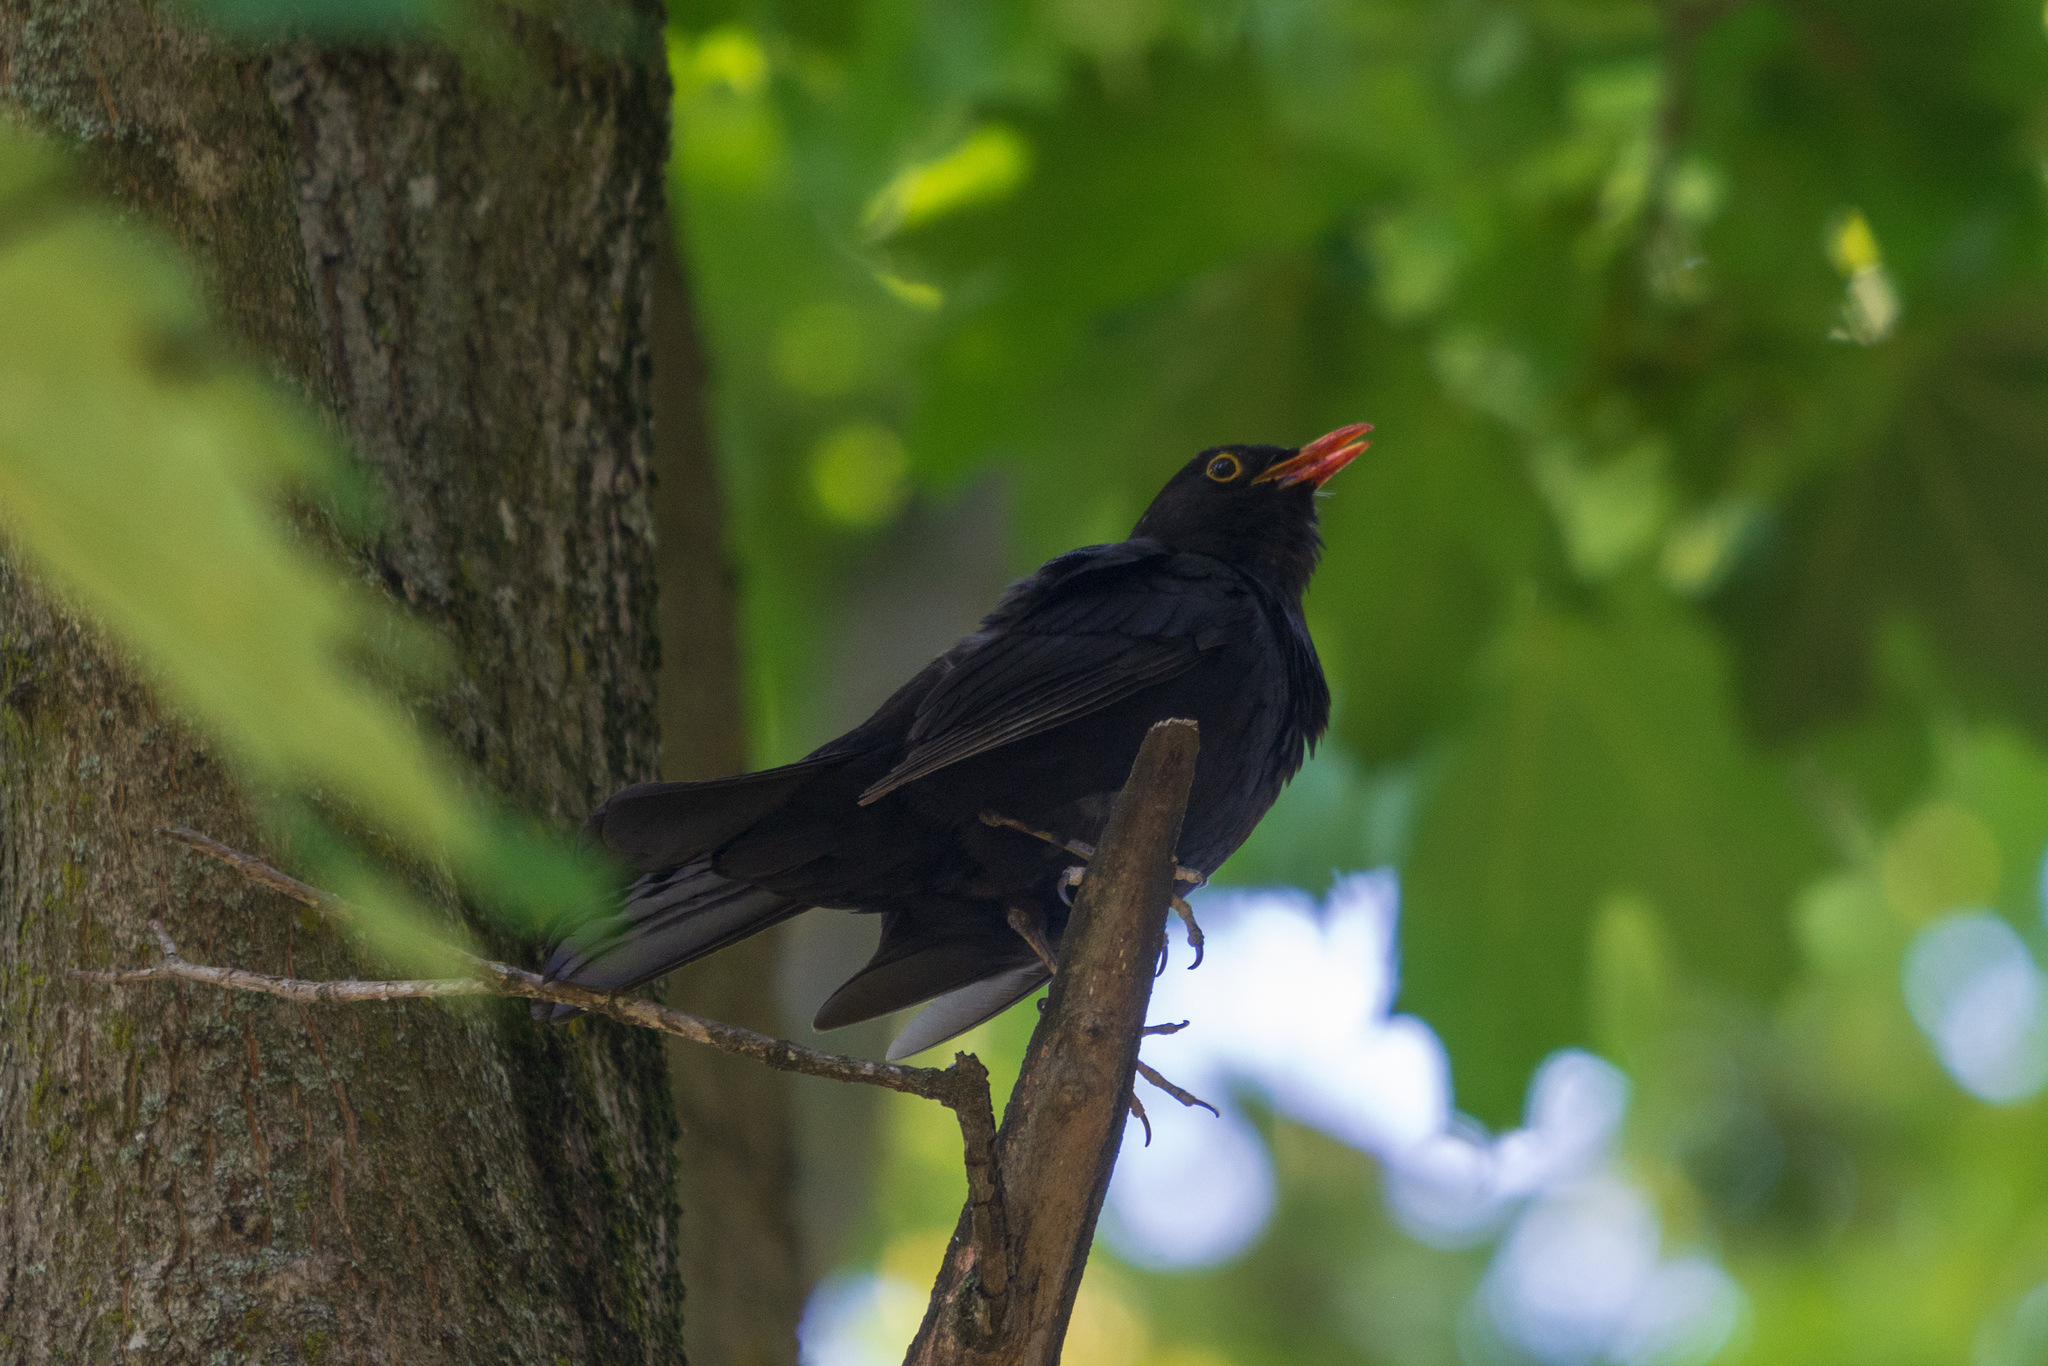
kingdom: Animalia
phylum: Chordata
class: Aves
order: Passeriformes
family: Turdidae
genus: Turdus
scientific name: Turdus merula
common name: Common blackbird
